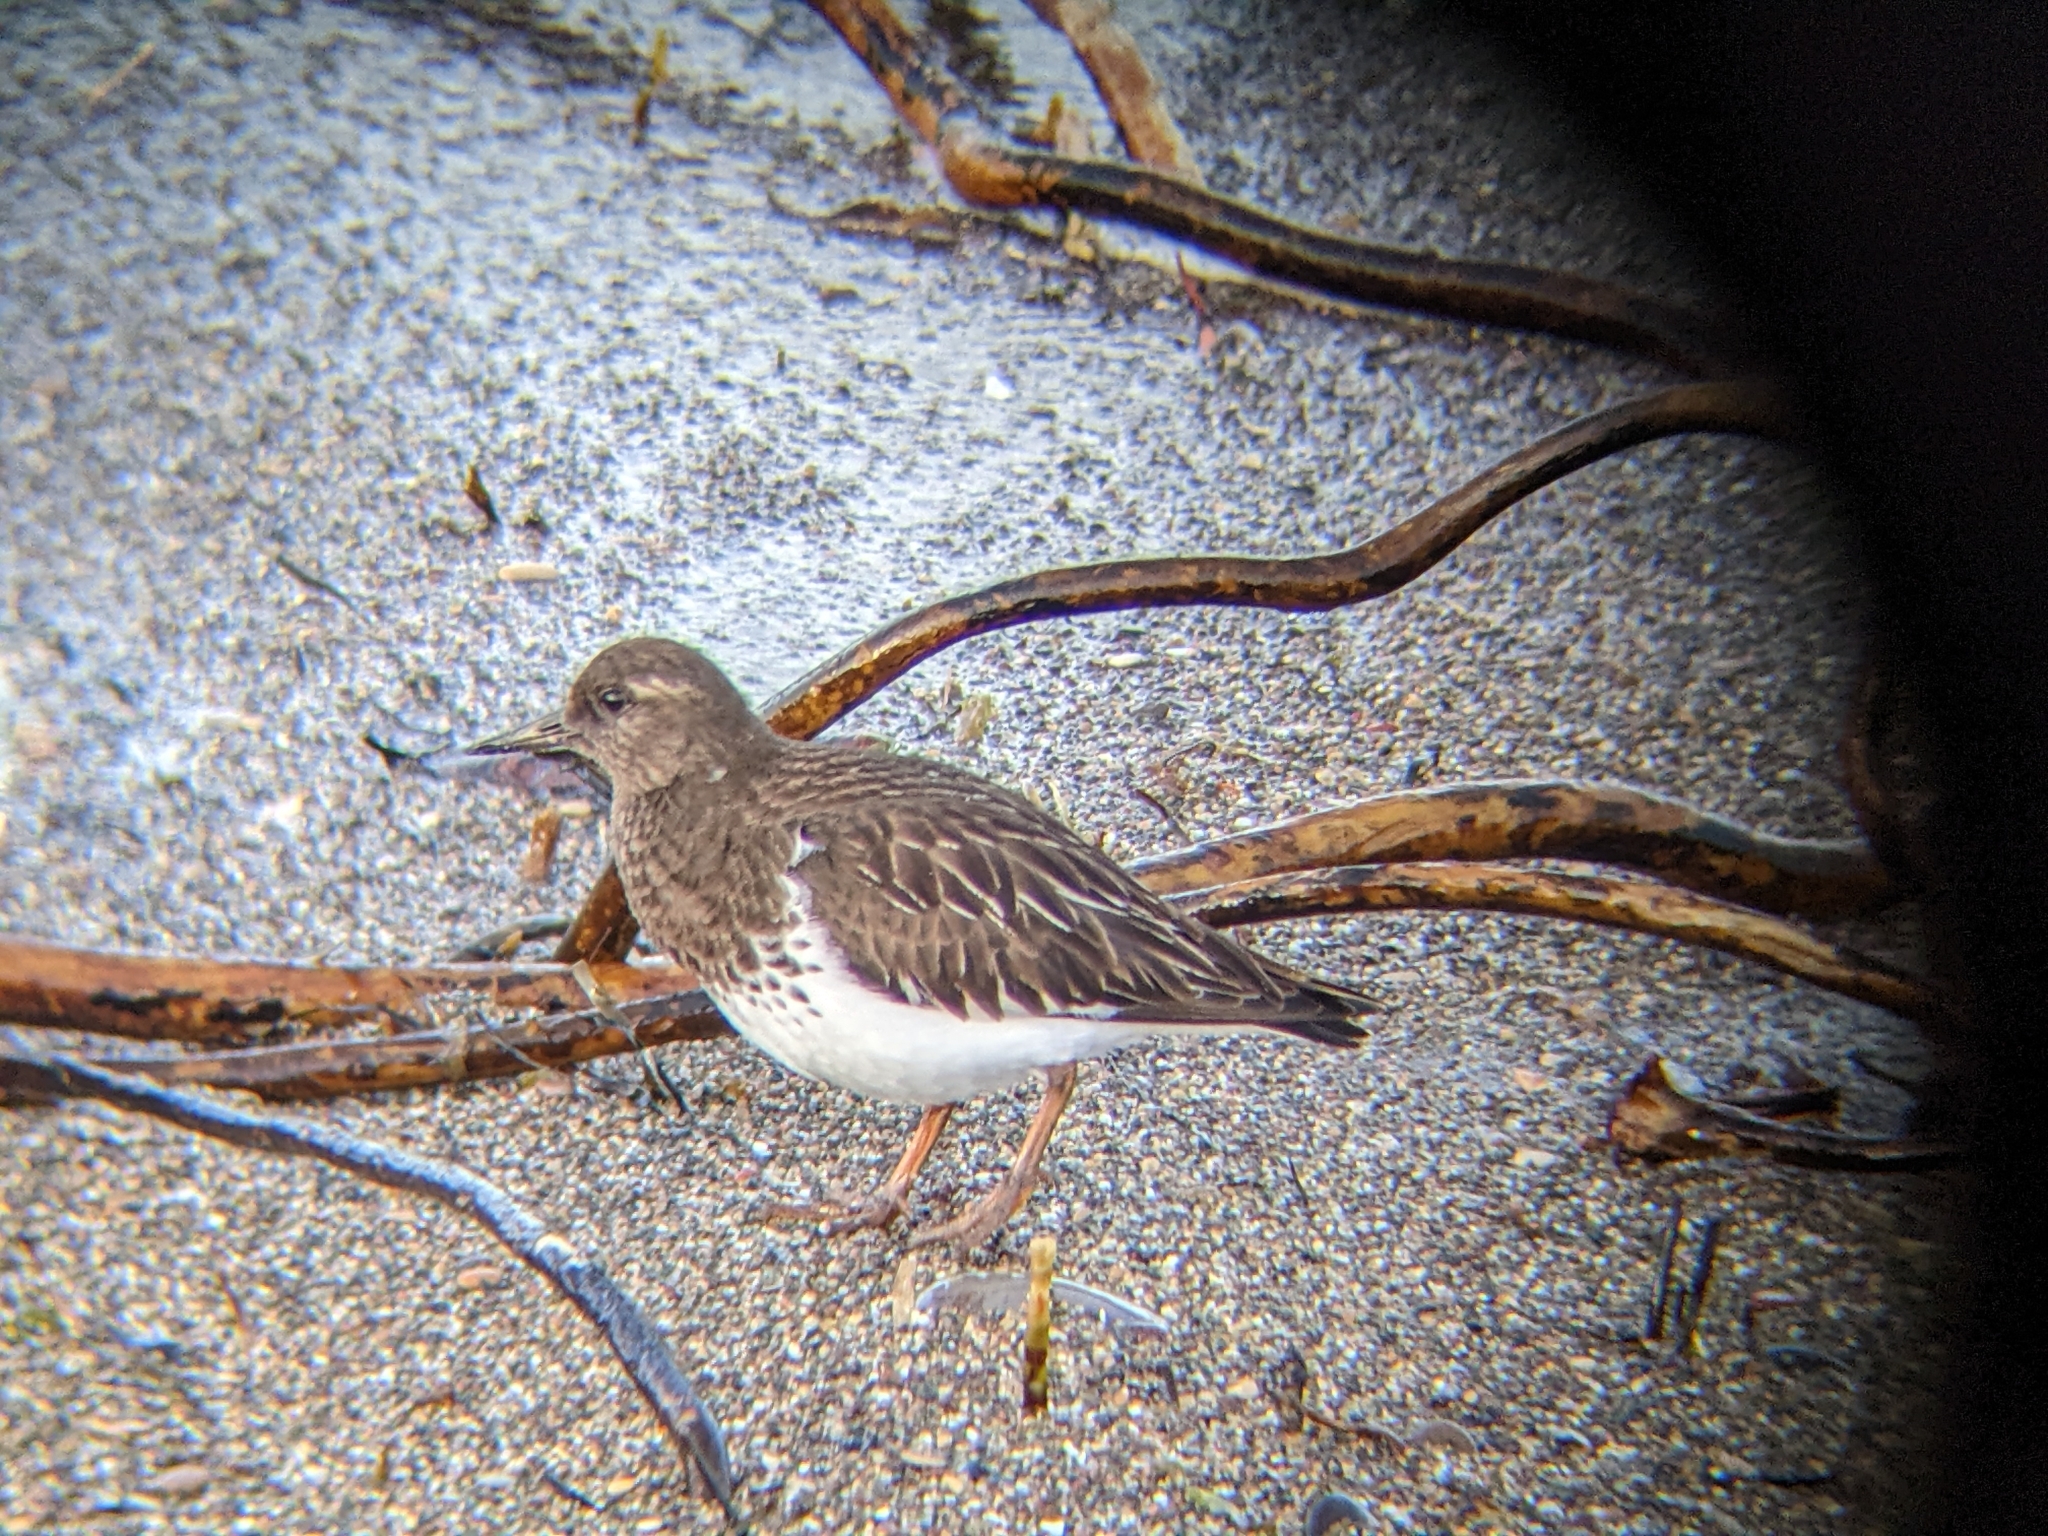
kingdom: Animalia
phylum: Chordata
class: Aves
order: Charadriiformes
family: Scolopacidae
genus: Arenaria
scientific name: Arenaria melanocephala
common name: Black turnstone
